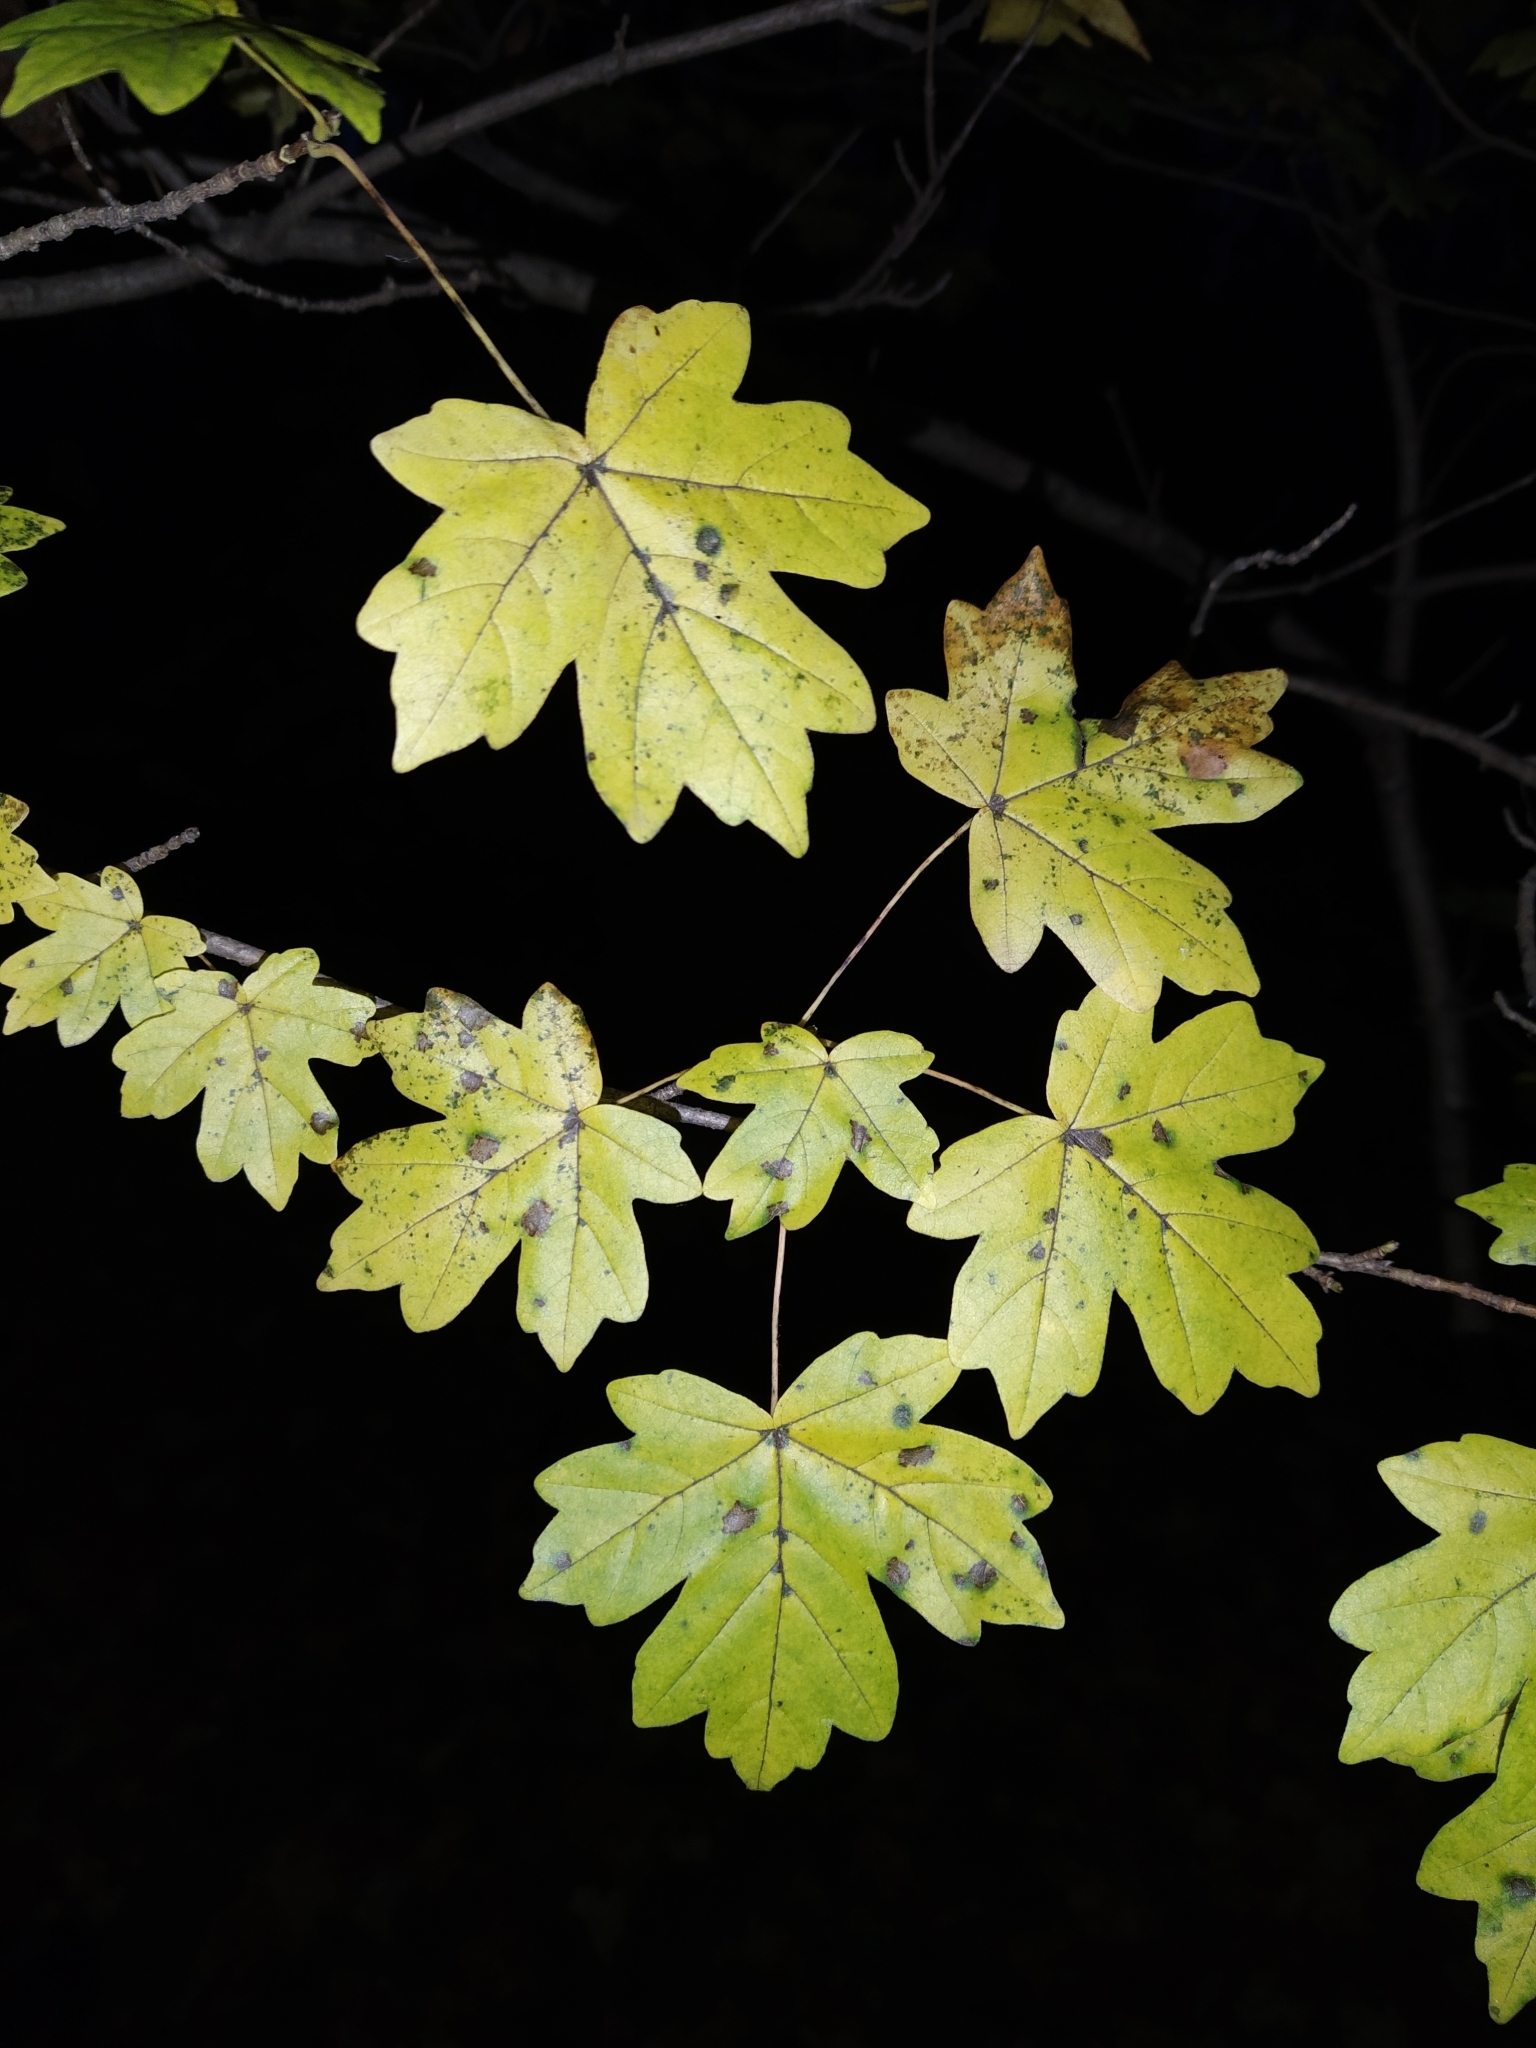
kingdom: Plantae
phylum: Tracheophyta
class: Magnoliopsida
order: Sapindales
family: Sapindaceae
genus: Acer
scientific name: Acer campestre
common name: Field maple
